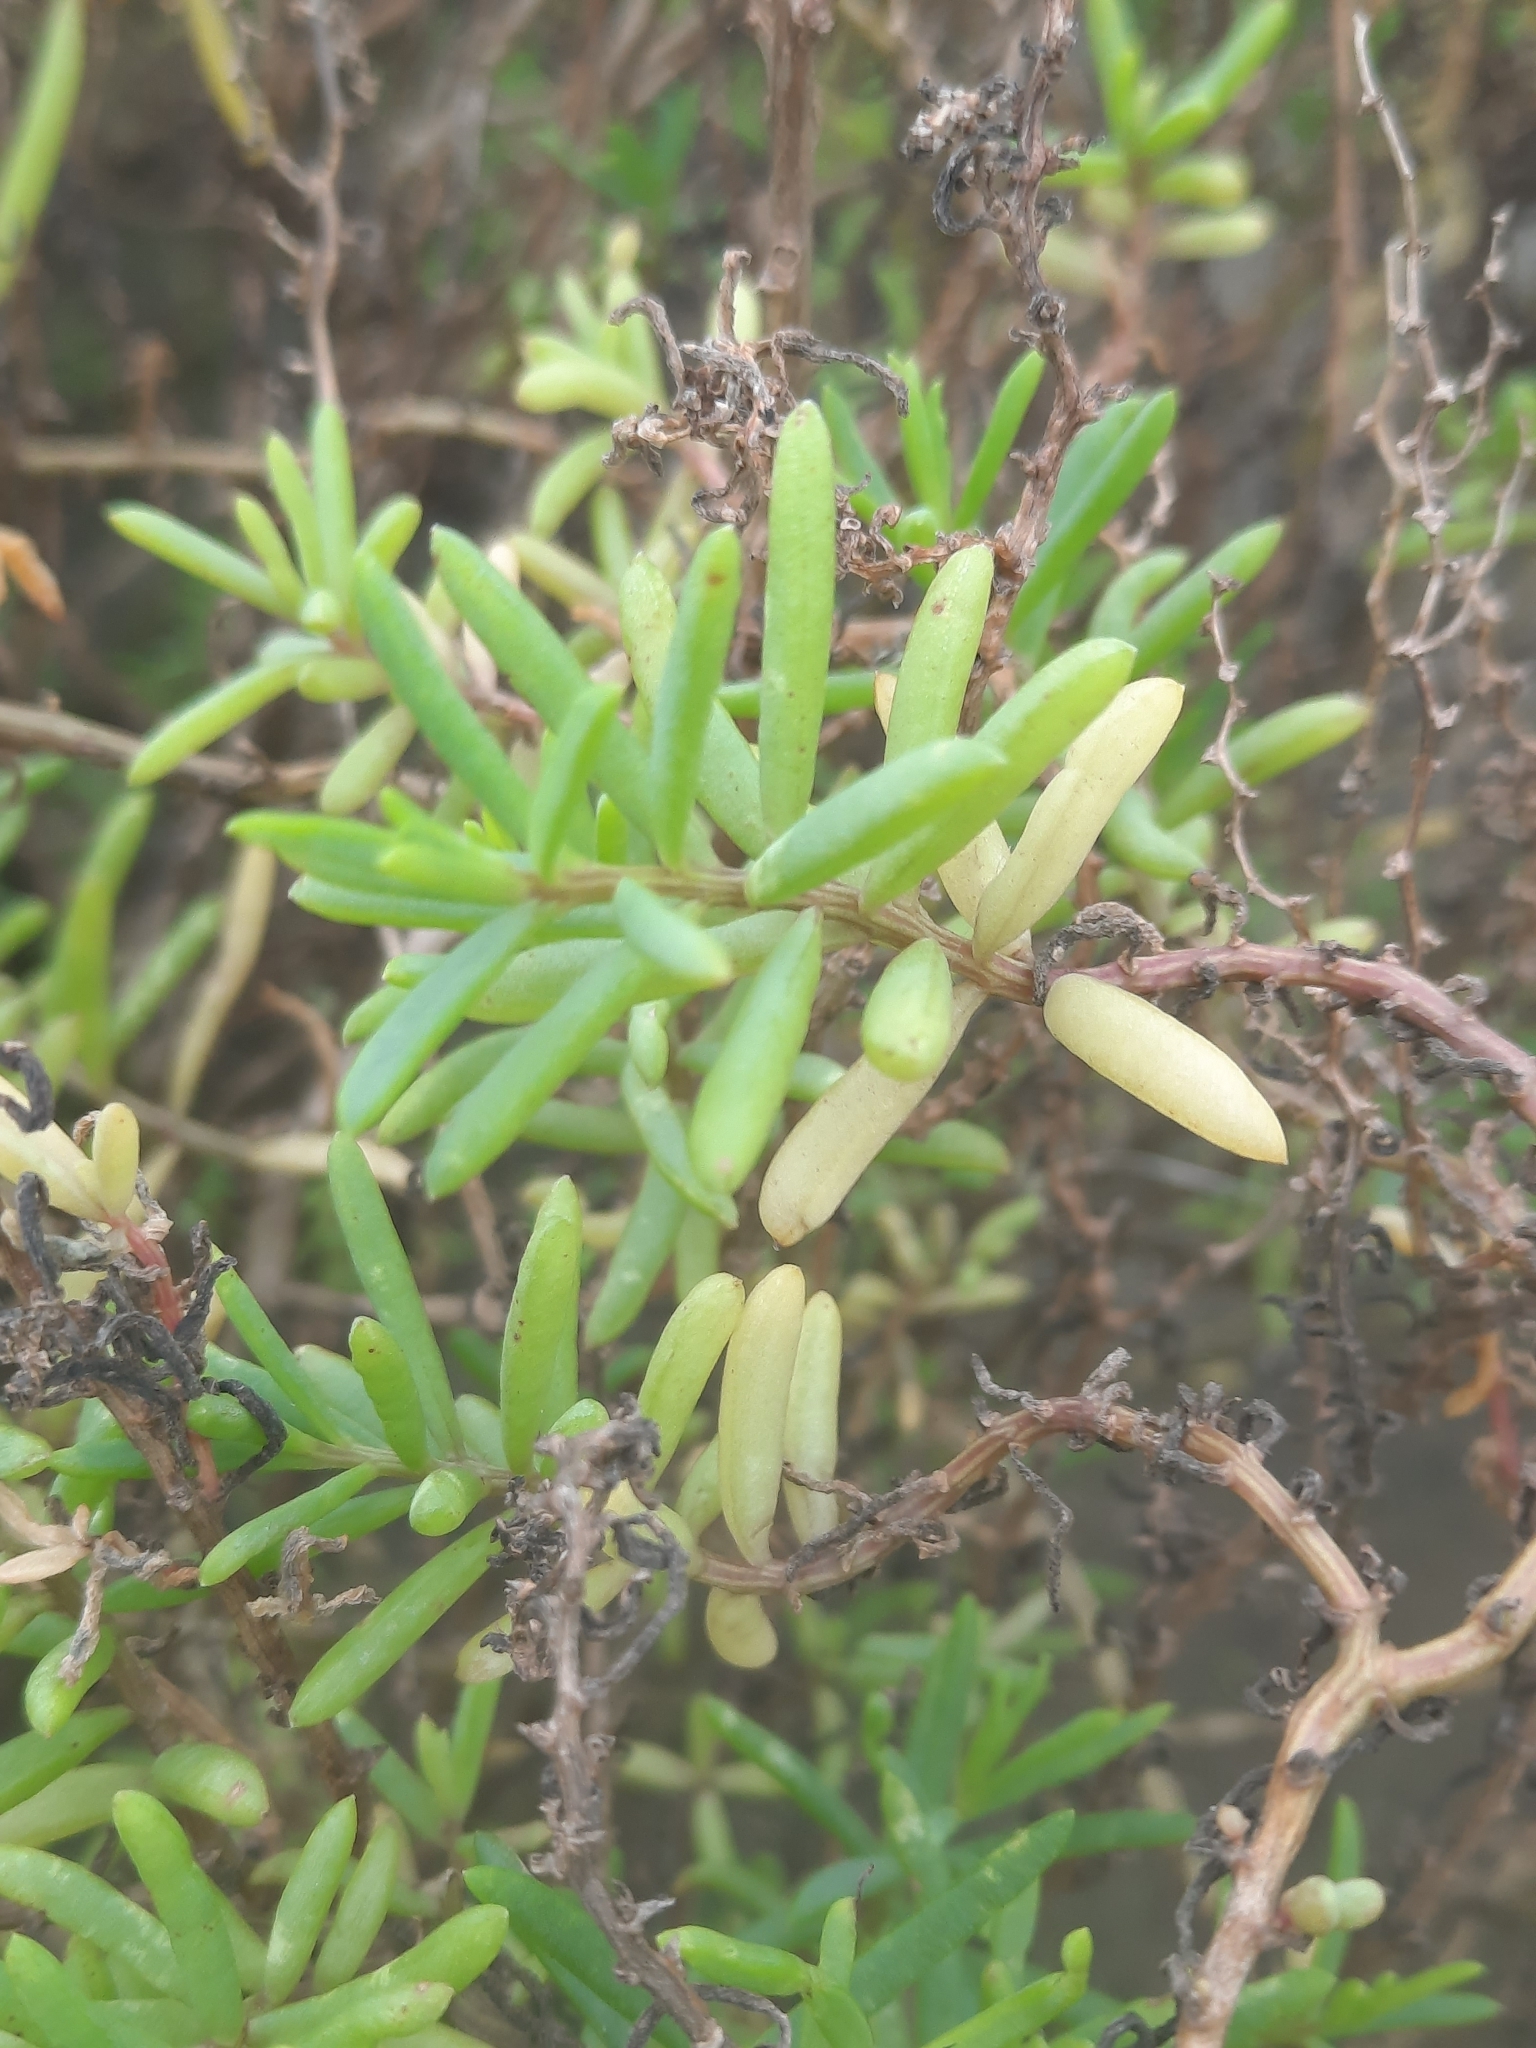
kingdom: Plantae
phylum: Tracheophyta
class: Magnoliopsida
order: Caryophyllales
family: Amaranthaceae
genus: Suaeda
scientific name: Suaeda maritima
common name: Annual sea-blite
